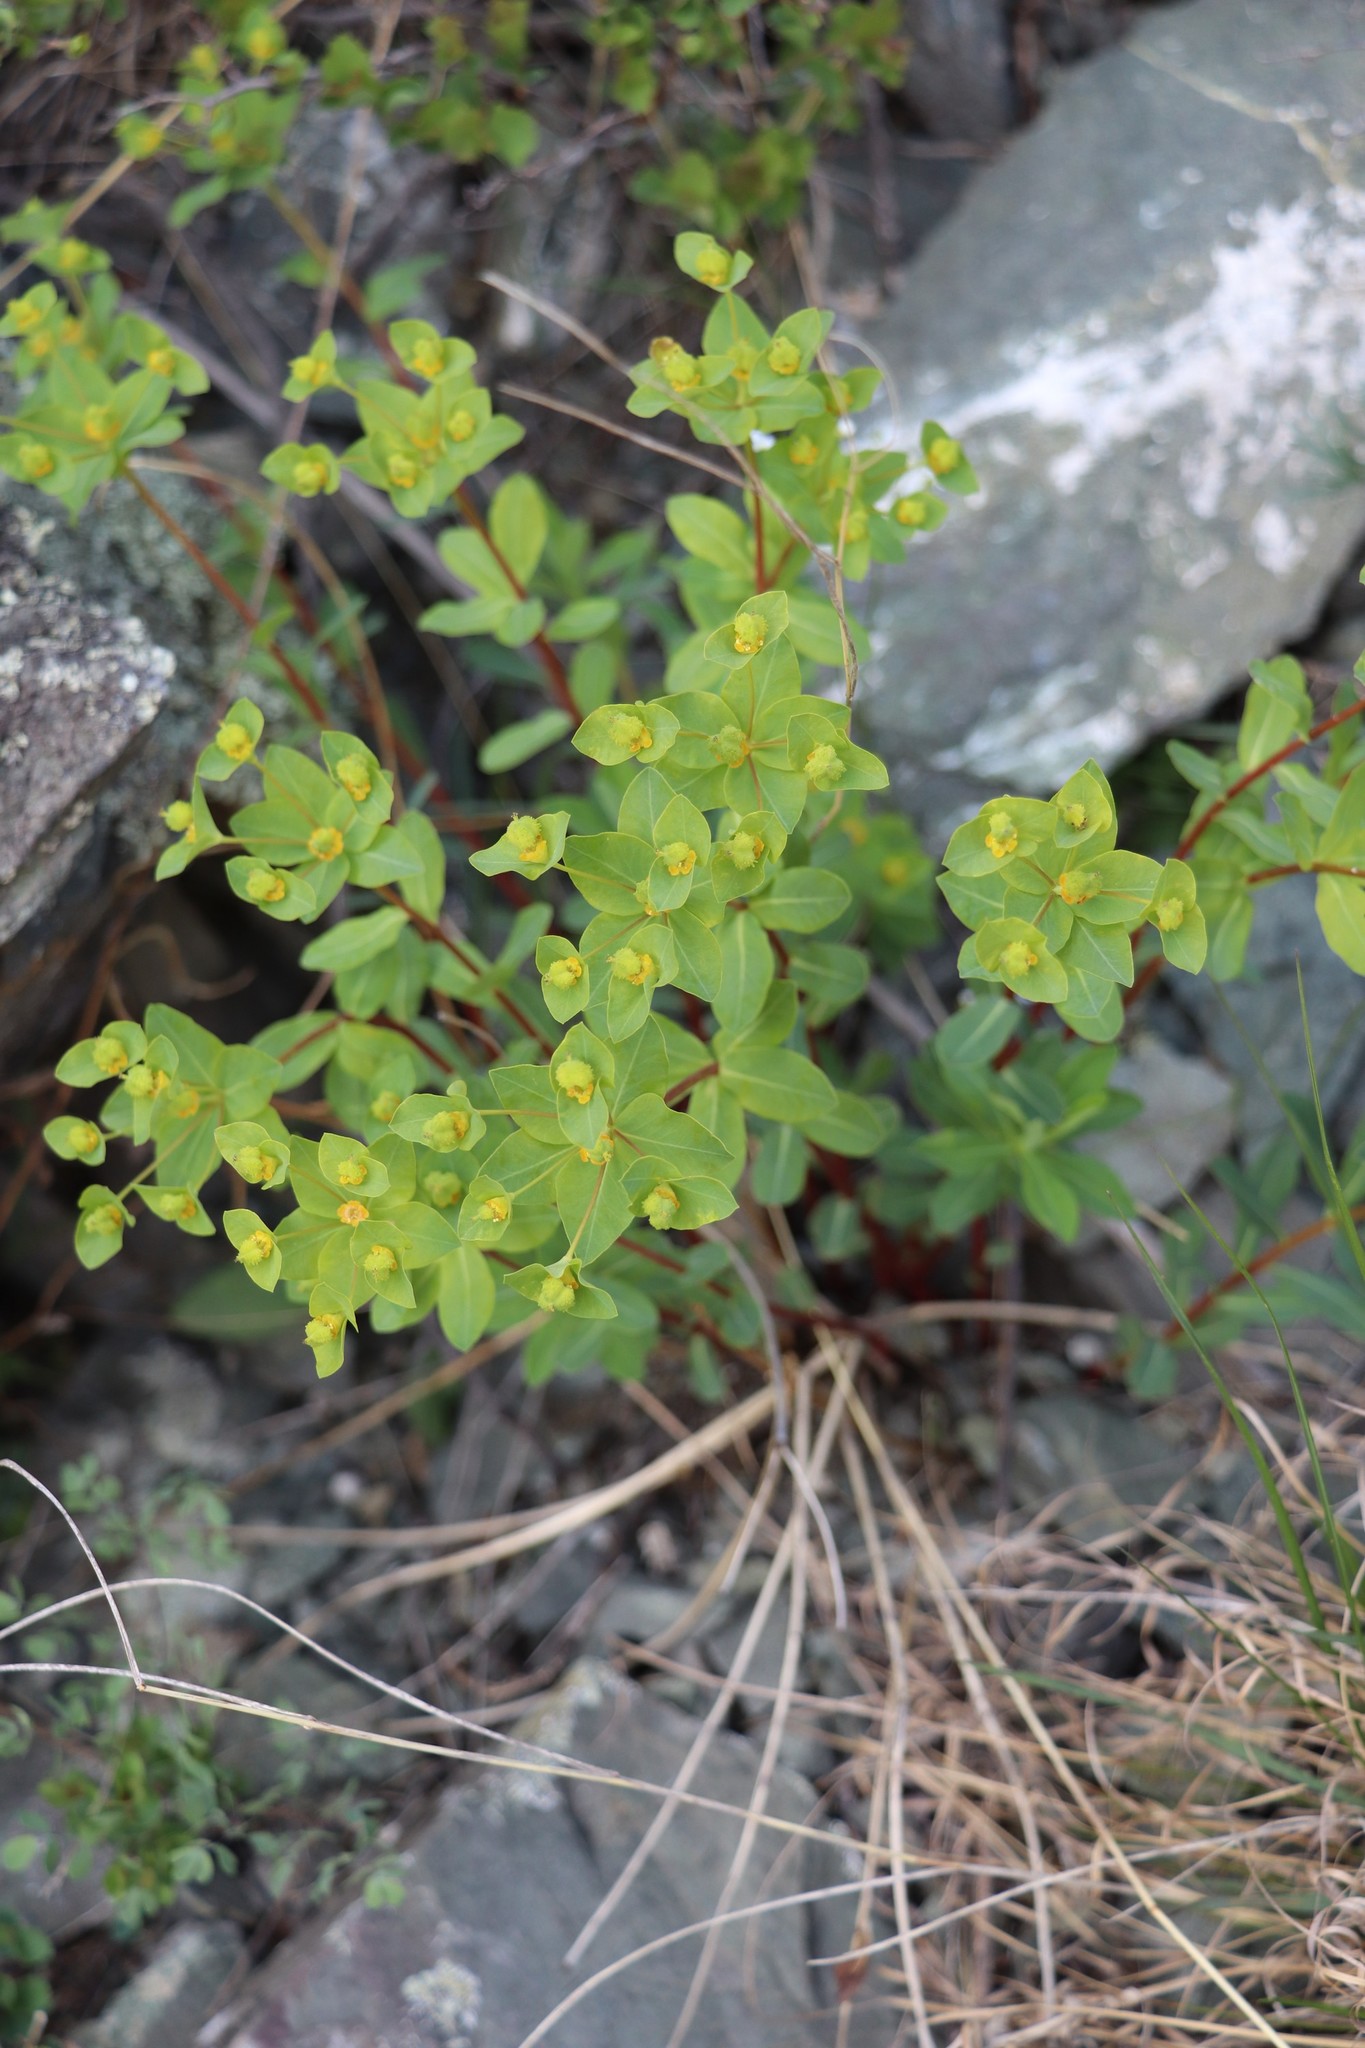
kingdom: Plantae
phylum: Tracheophyta
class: Magnoliopsida
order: Malpighiales
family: Euphorbiaceae
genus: Euphorbia
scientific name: Euphorbia alpina
